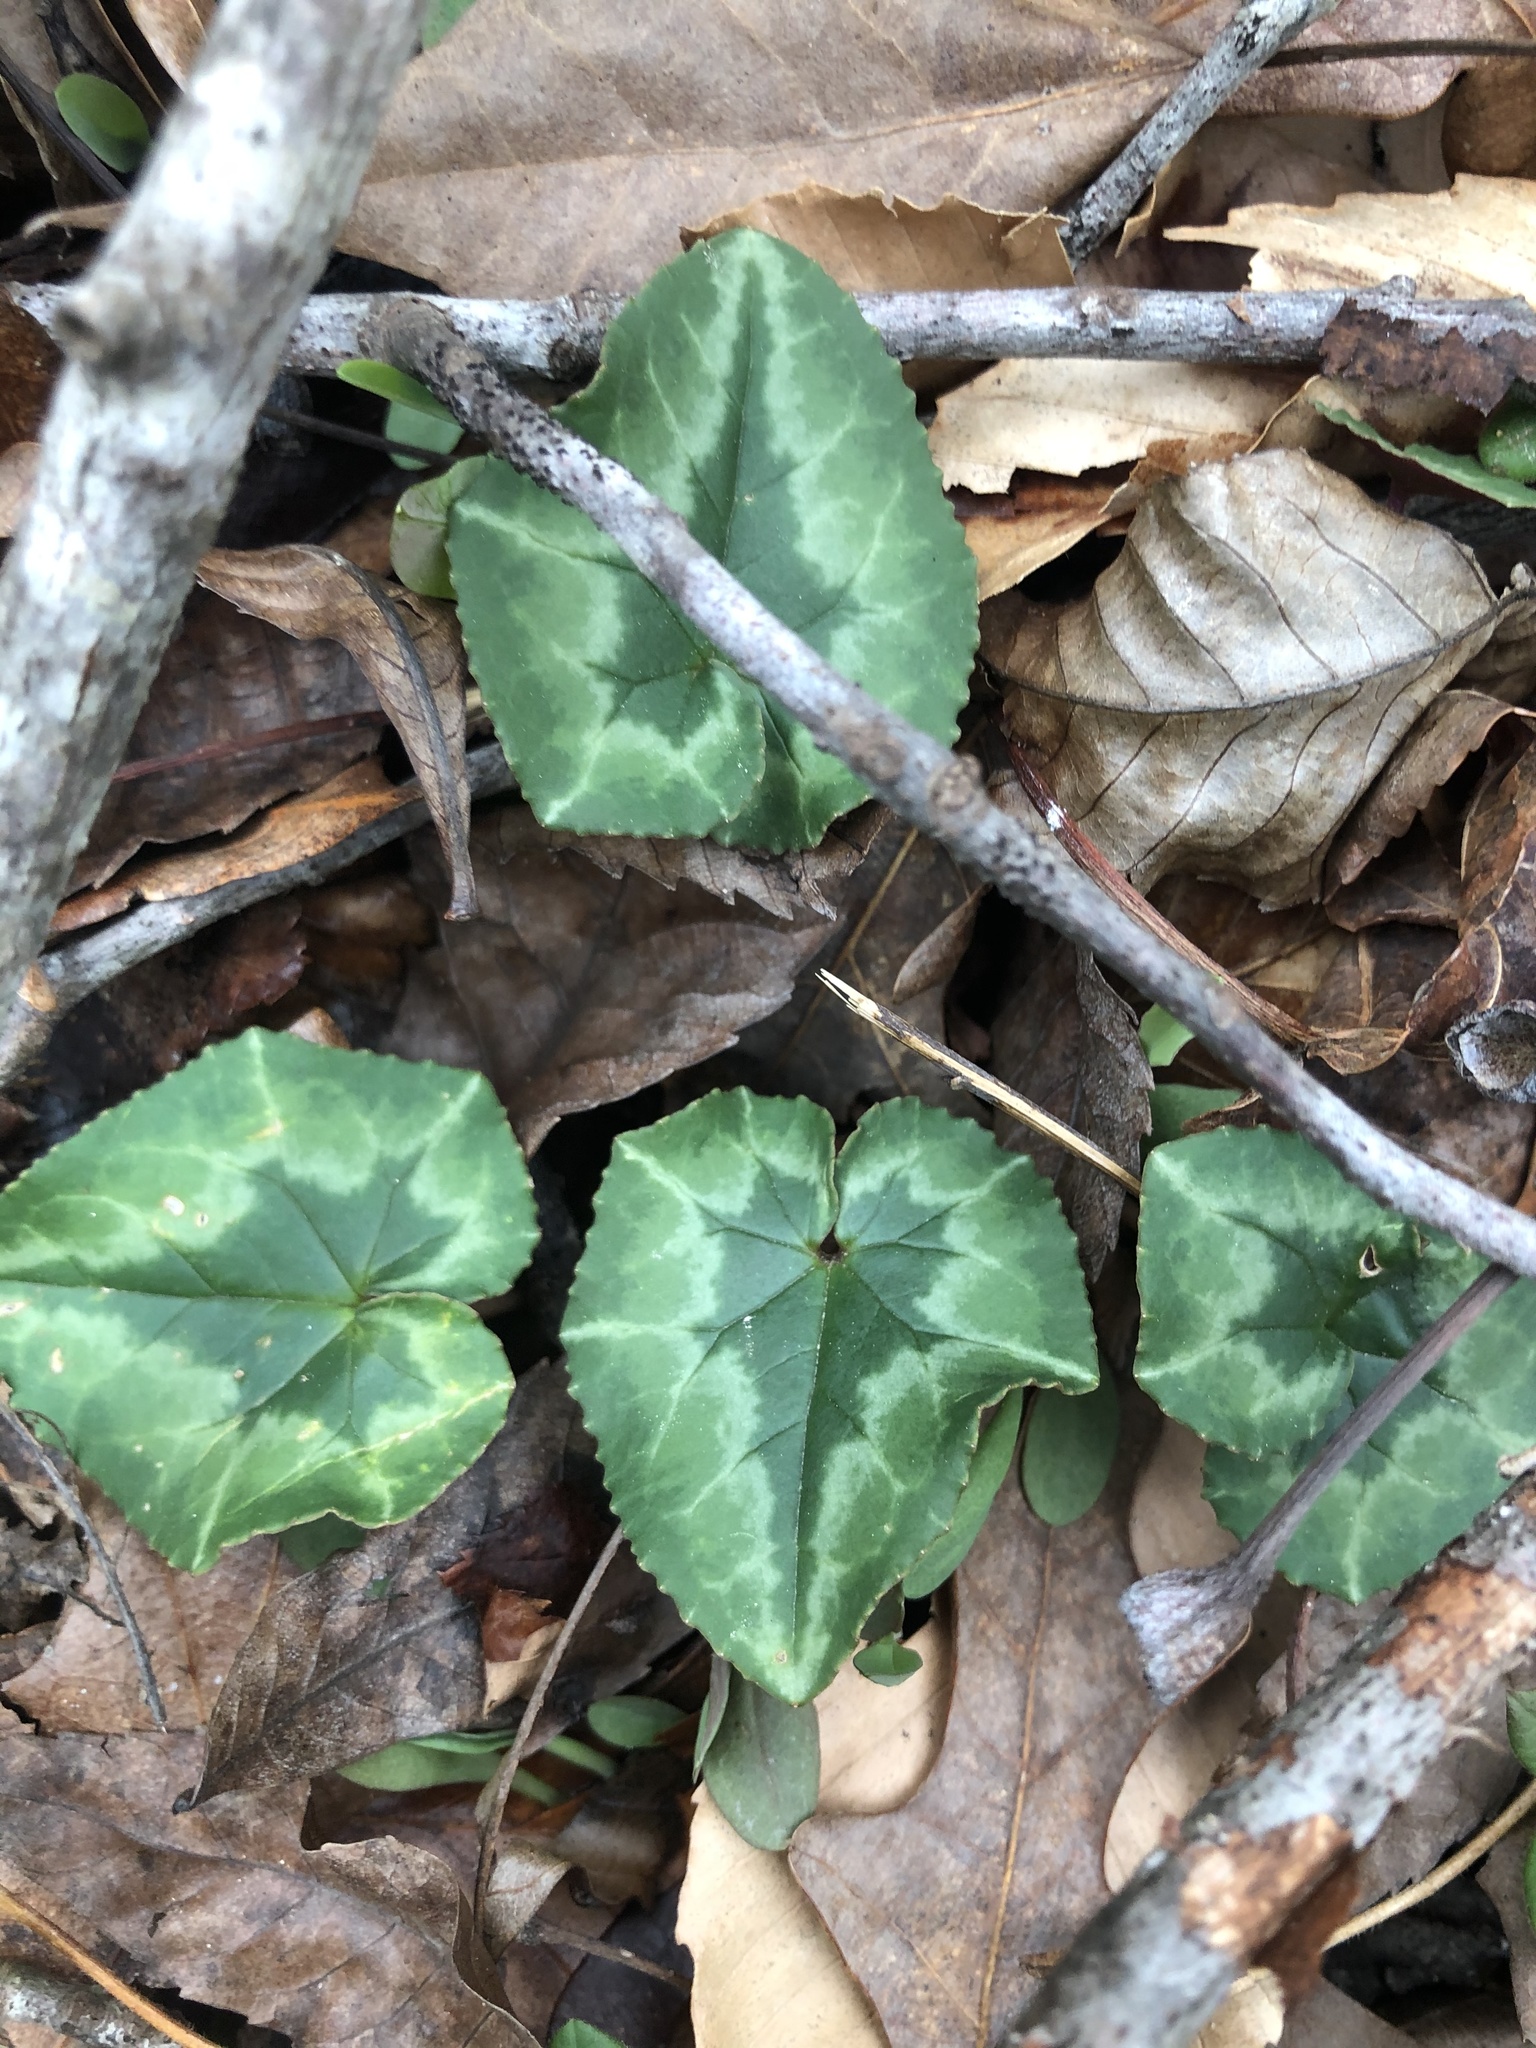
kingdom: Plantae
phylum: Tracheophyta
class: Magnoliopsida
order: Ericales
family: Primulaceae
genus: Cyclamen
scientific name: Cyclamen hederifolium
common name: Sowbread
